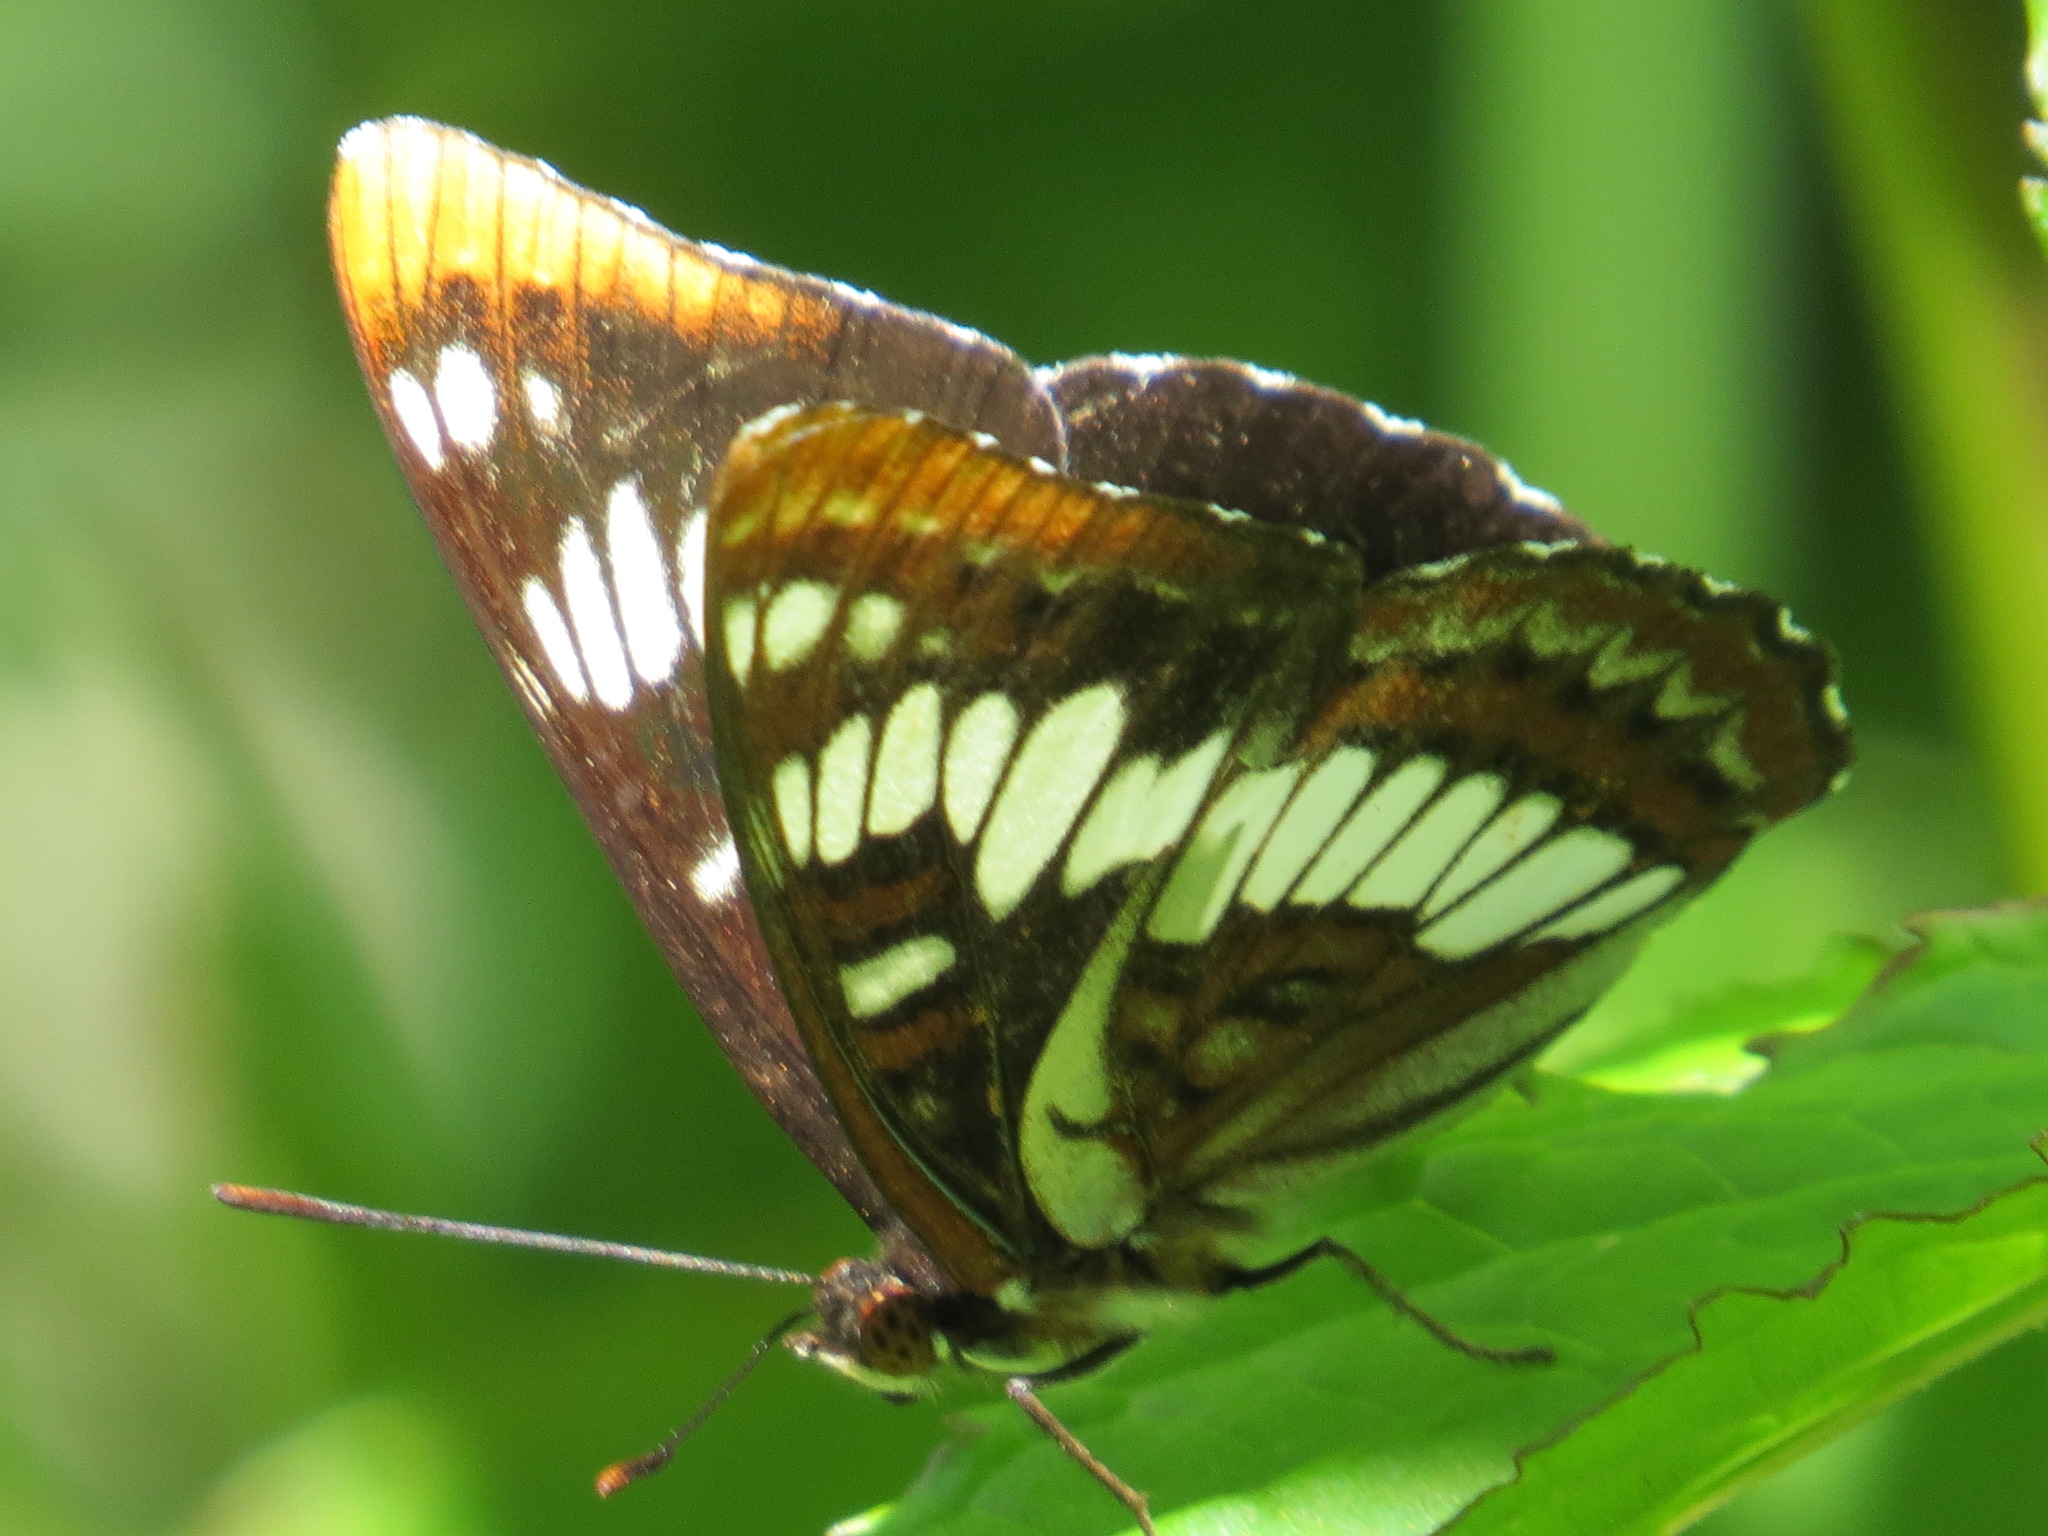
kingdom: Animalia
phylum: Arthropoda
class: Insecta
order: Lepidoptera
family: Nymphalidae
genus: Limenitis
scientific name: Limenitis lorquini
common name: Lorquin's admiral
